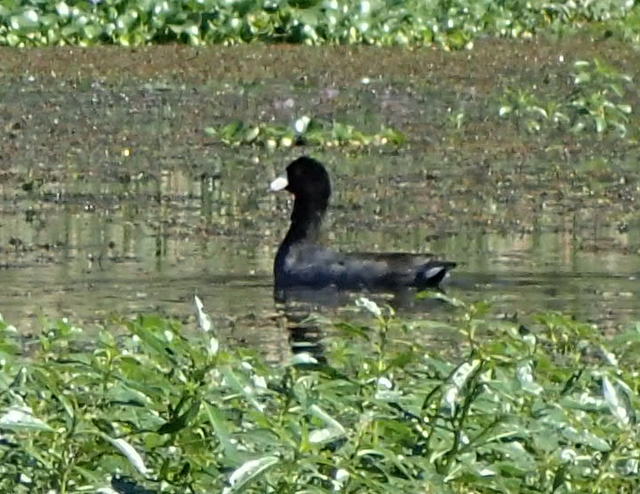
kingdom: Animalia
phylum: Chordata
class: Aves
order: Gruiformes
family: Rallidae
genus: Fulica
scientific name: Fulica americana
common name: American coot
